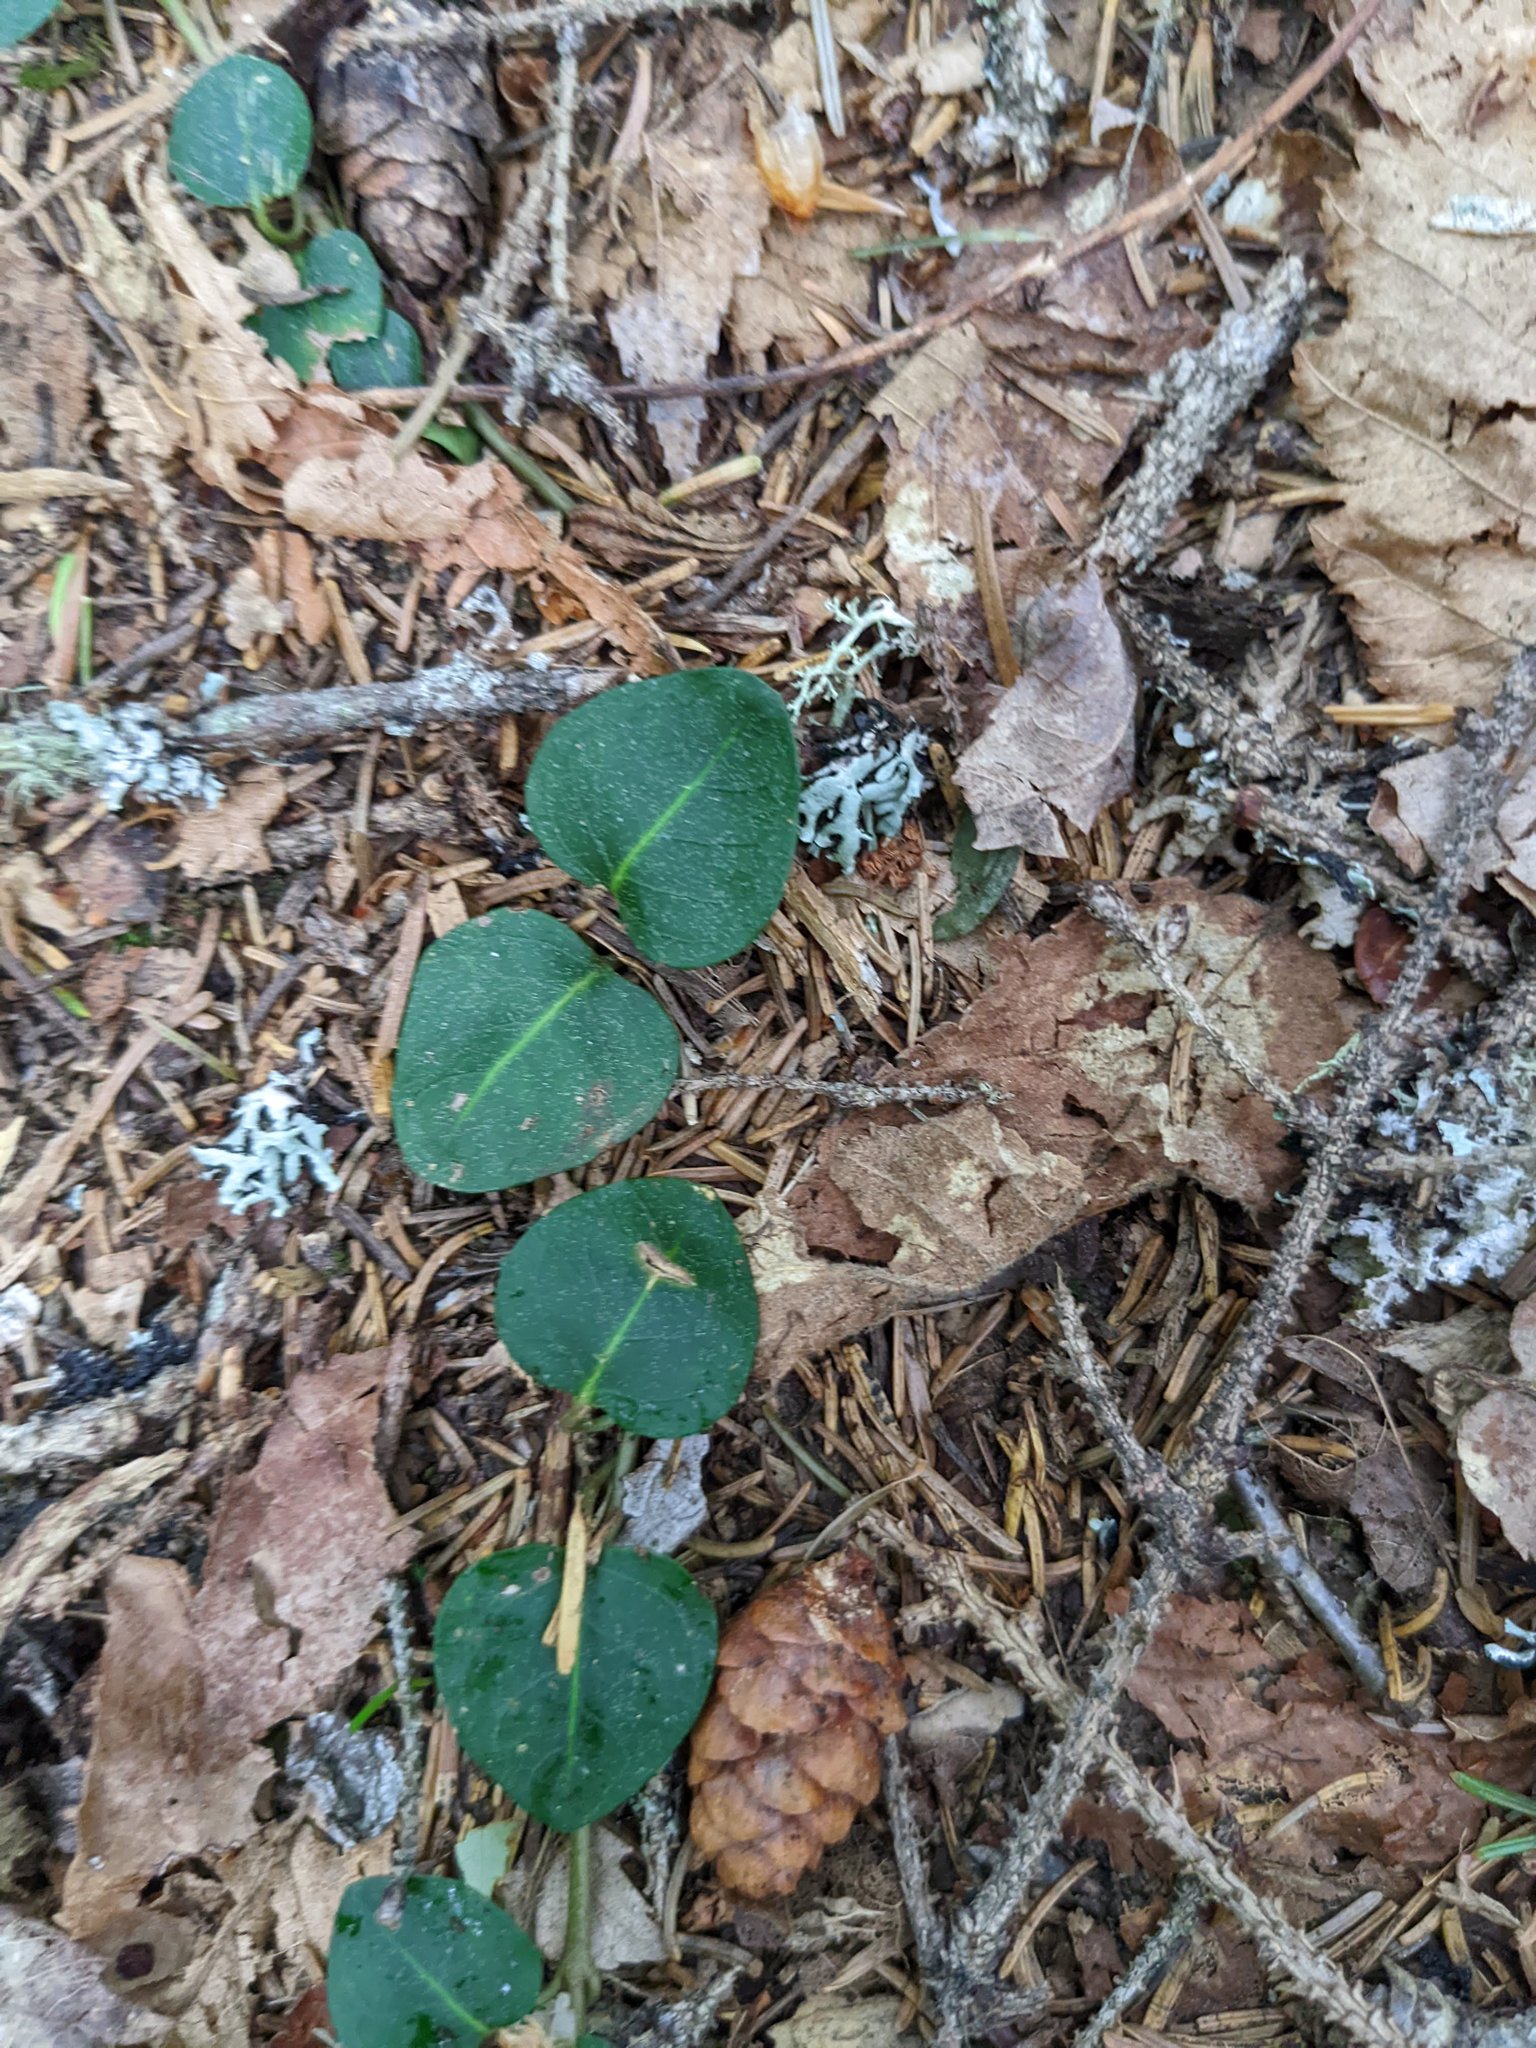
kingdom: Plantae
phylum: Tracheophyta
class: Magnoliopsida
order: Gentianales
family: Rubiaceae
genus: Mitchella
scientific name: Mitchella repens
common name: Partridge-berry
